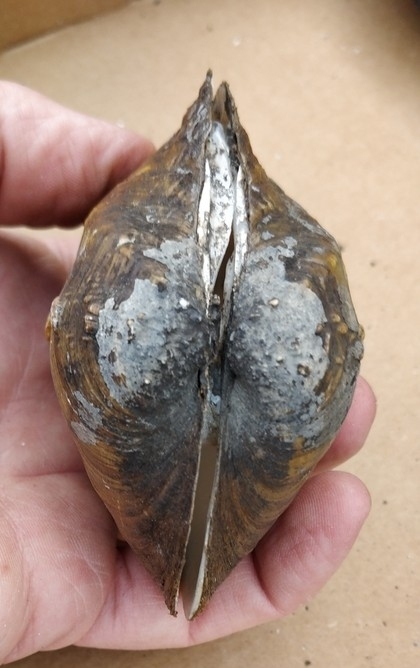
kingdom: Animalia
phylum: Mollusca
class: Bivalvia
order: Unionida
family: Unionidae
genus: Quadrula
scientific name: Quadrula quadrula
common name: Mapleleaf
